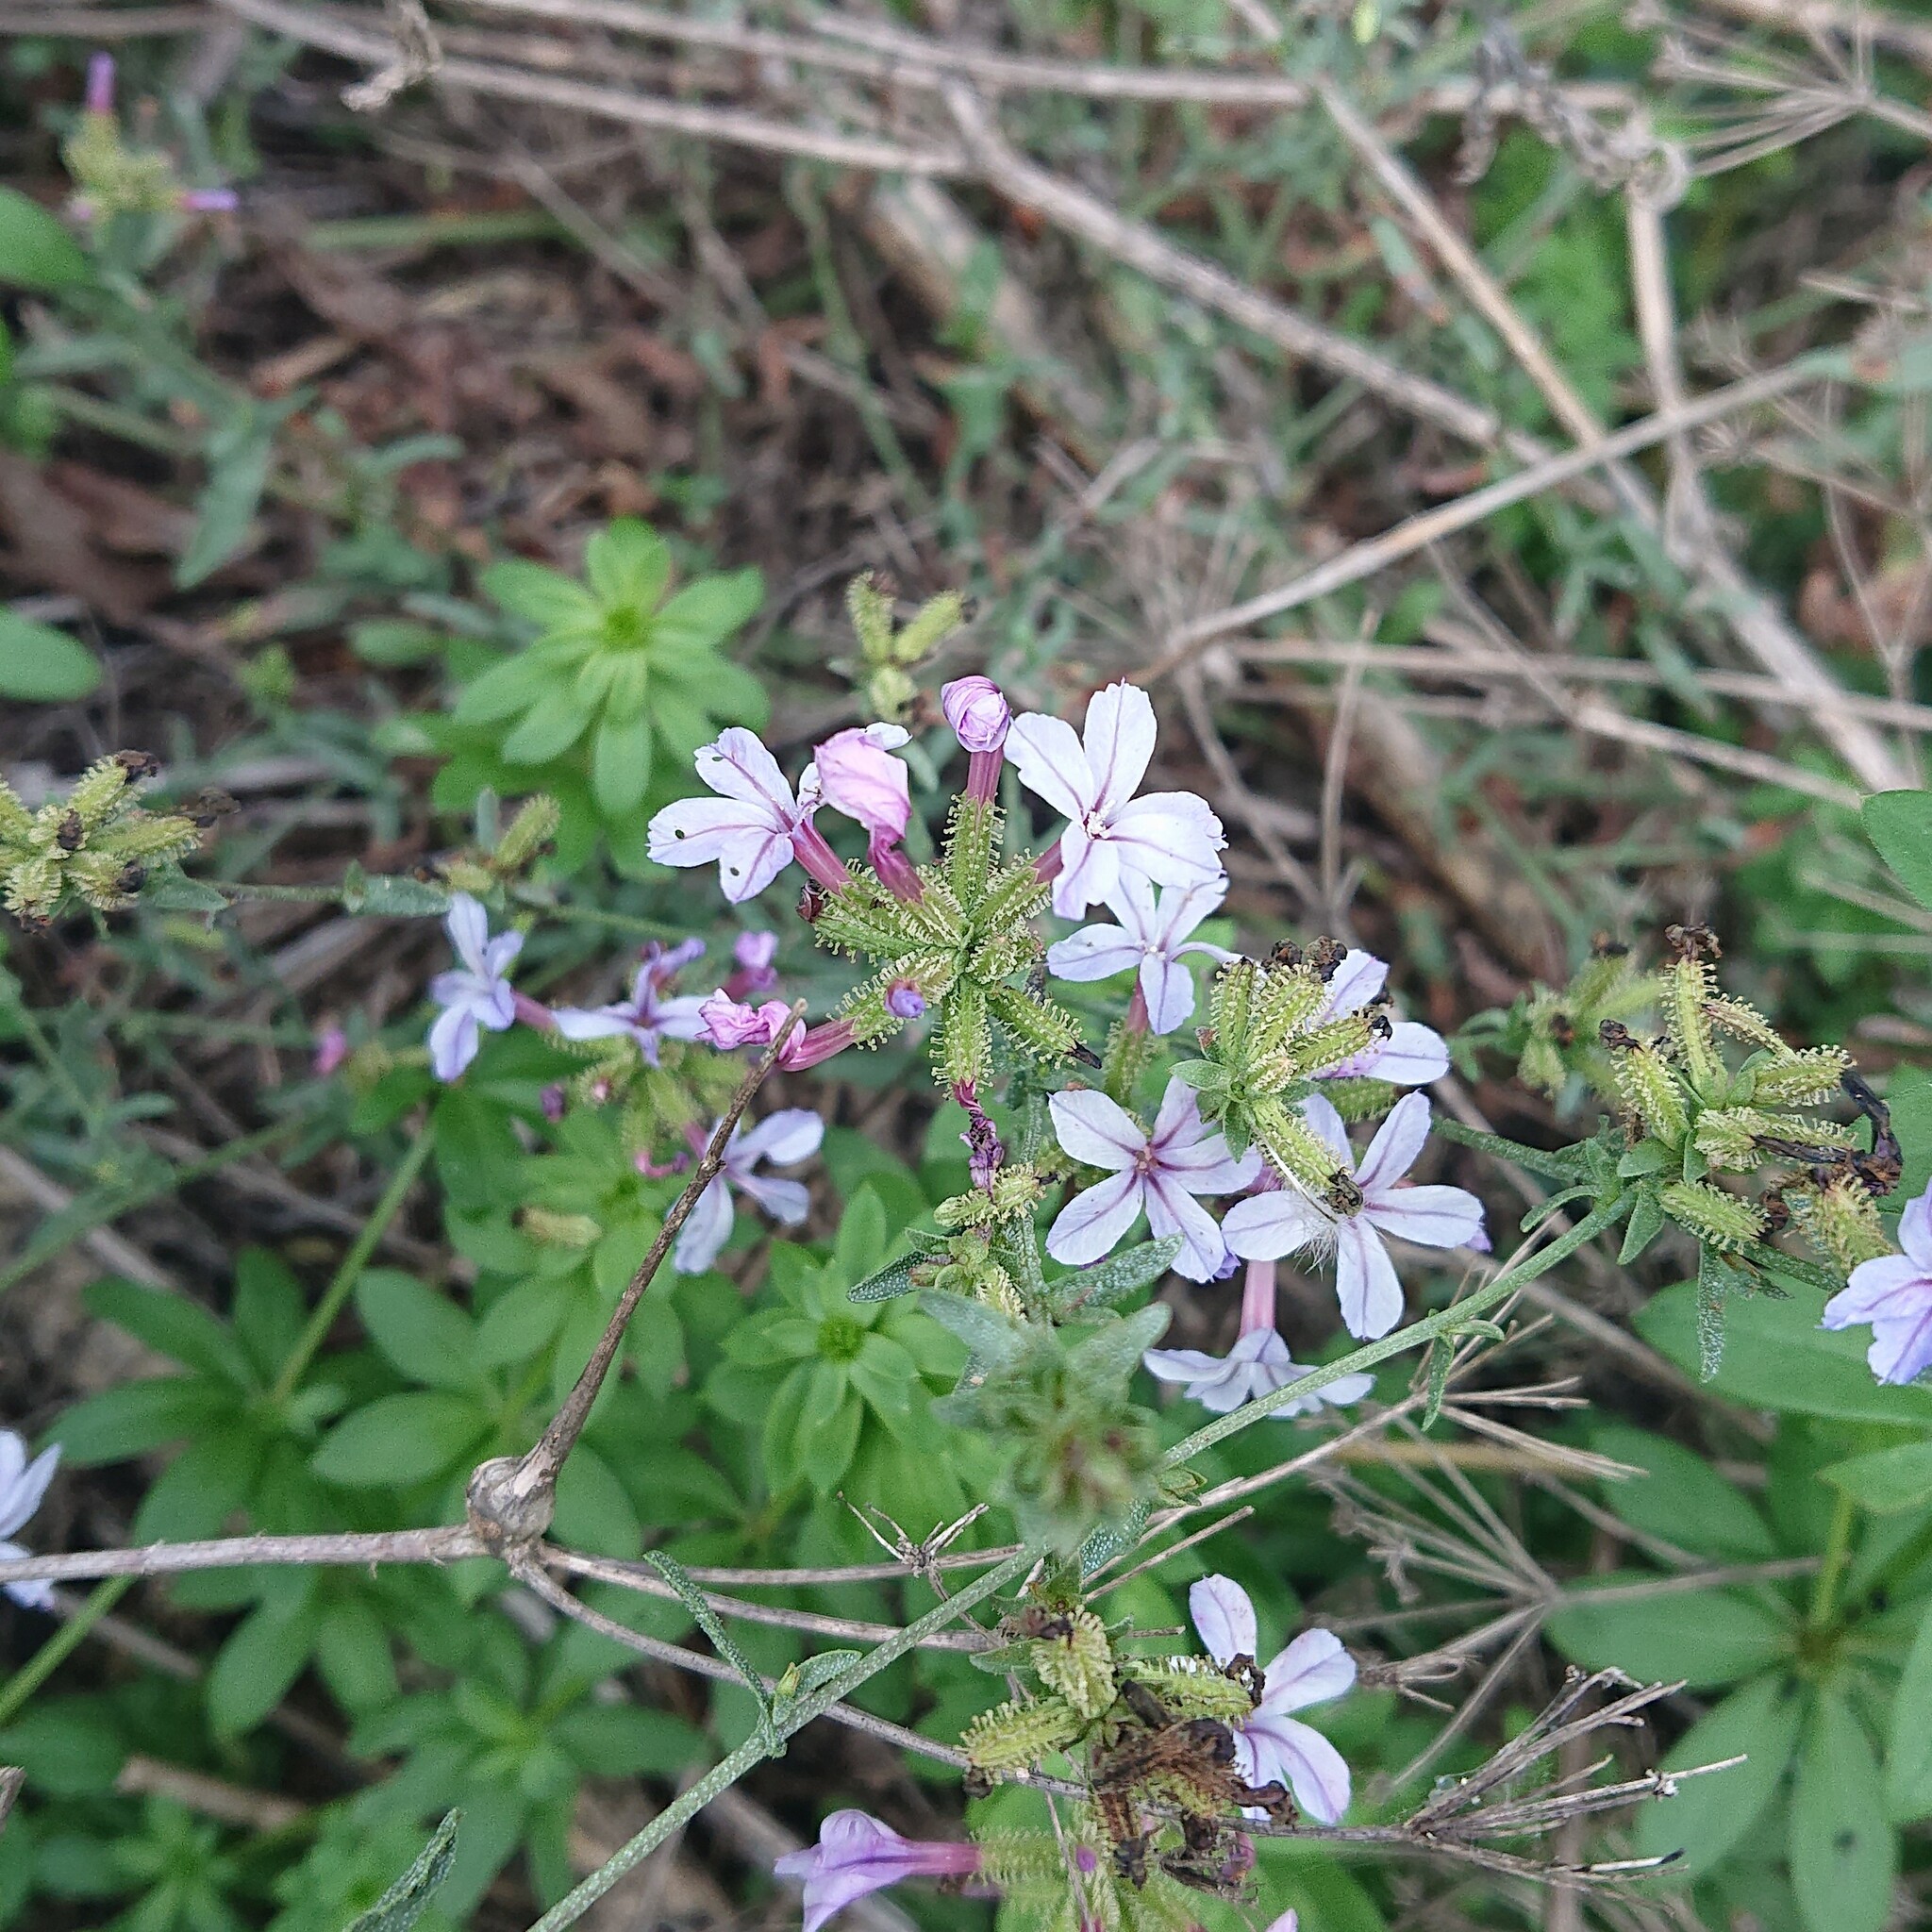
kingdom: Plantae
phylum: Tracheophyta
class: Magnoliopsida
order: Caryophyllales
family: Plumbaginaceae
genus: Plumbago
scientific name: Plumbago europaea
